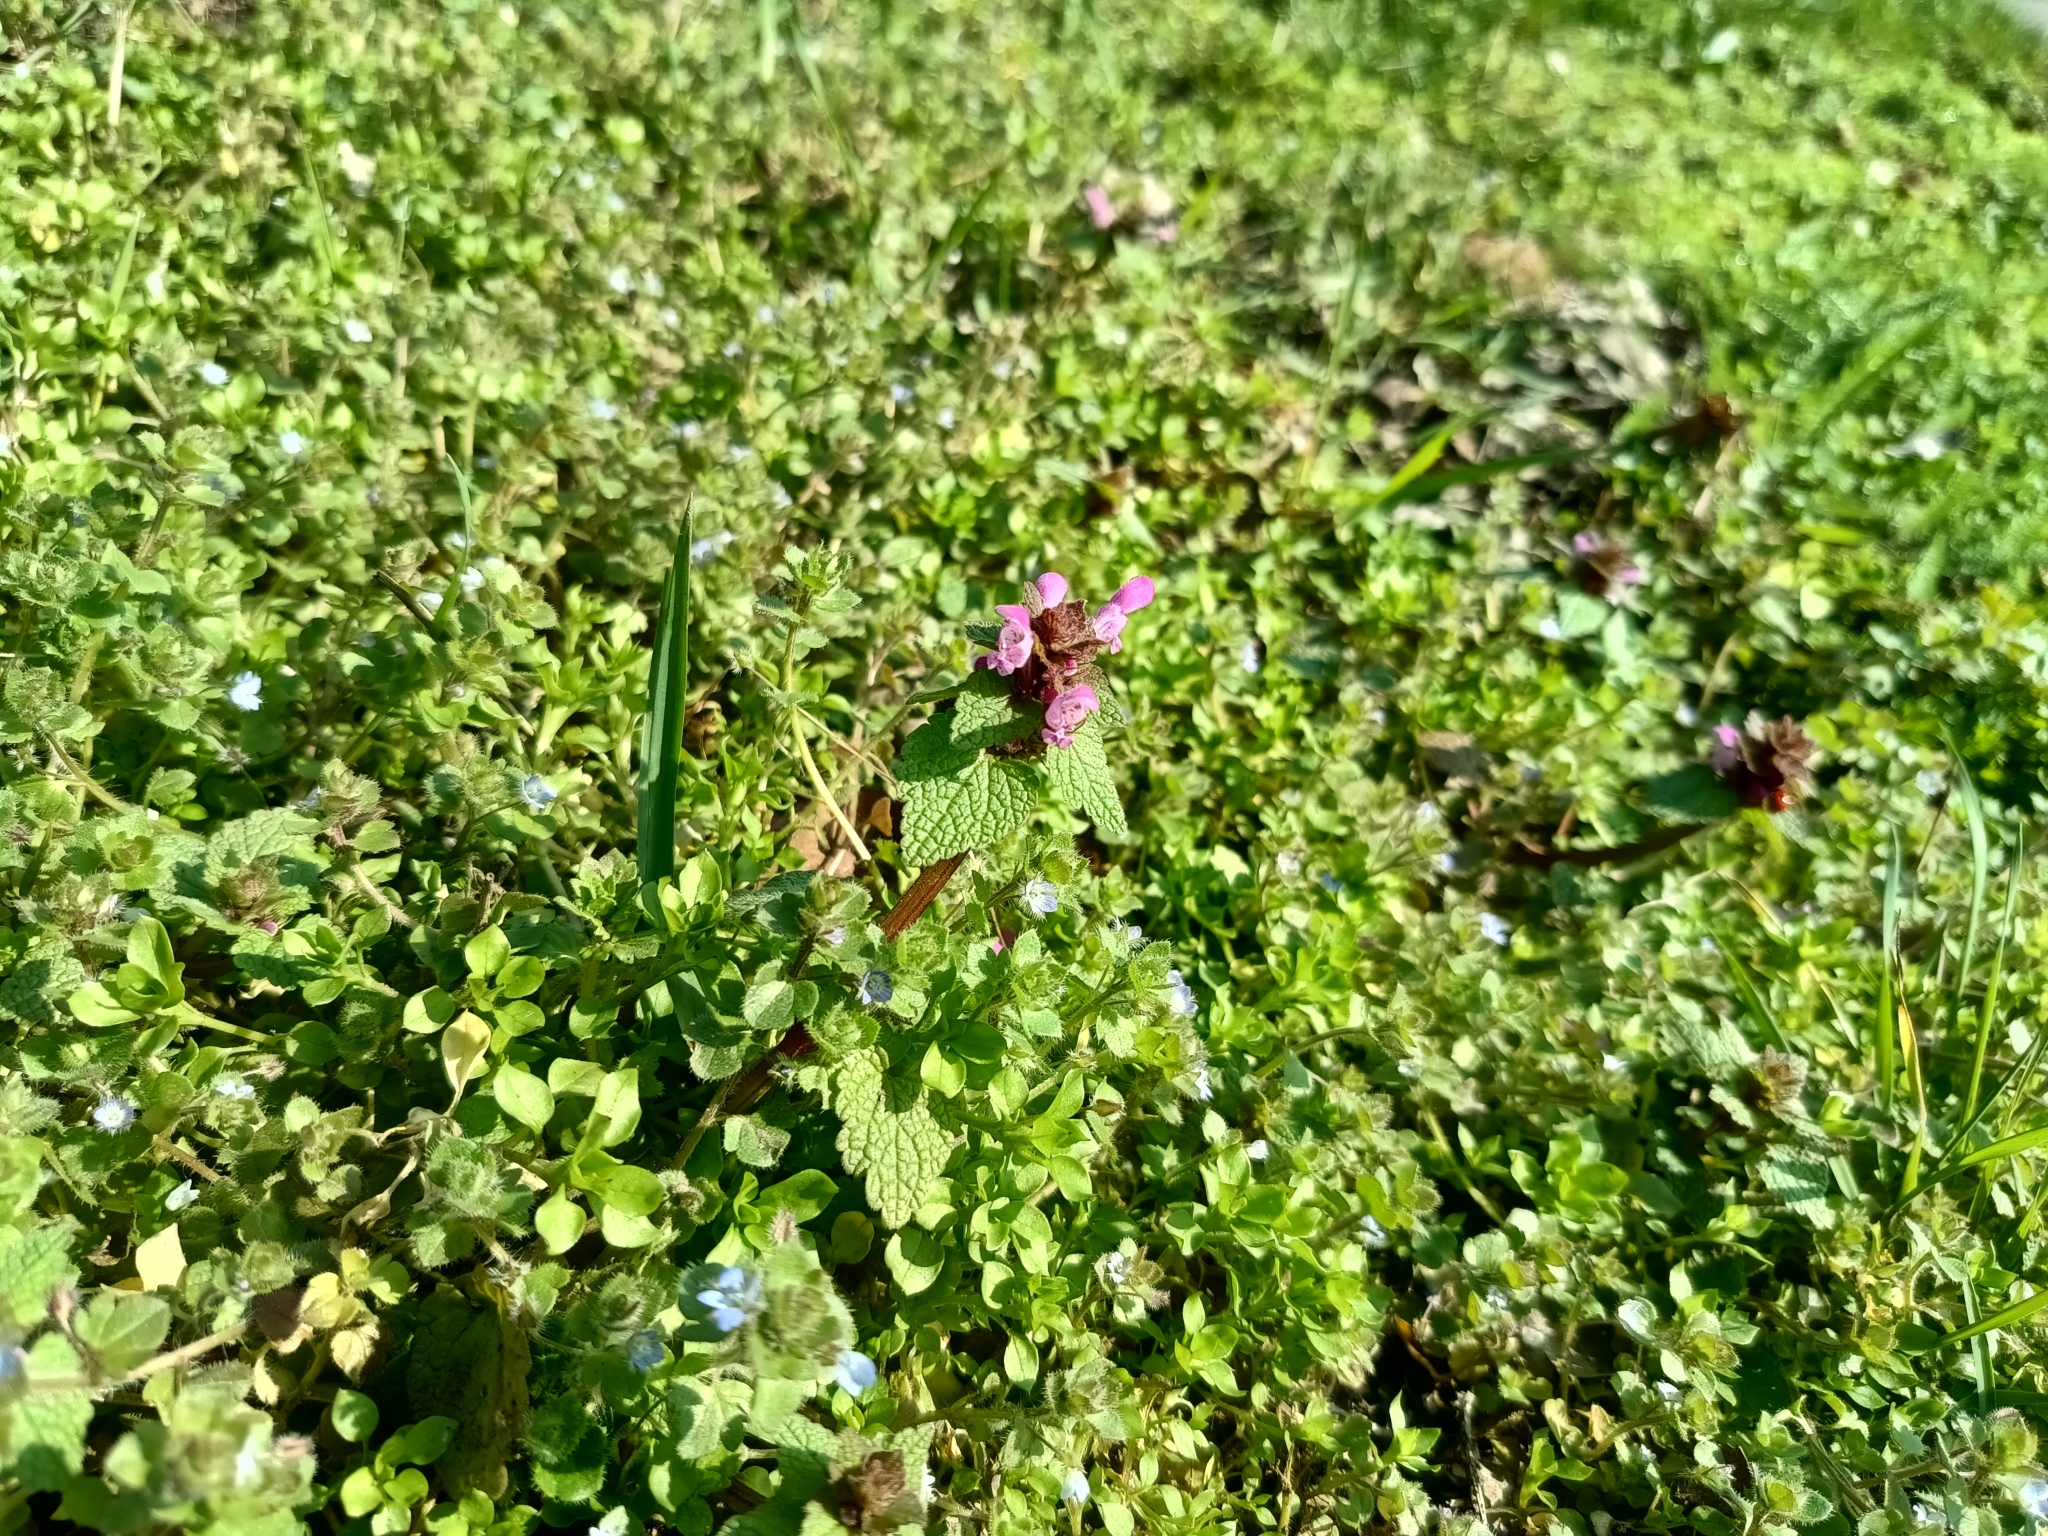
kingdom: Plantae
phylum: Tracheophyta
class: Magnoliopsida
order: Lamiales
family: Lamiaceae
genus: Lamium
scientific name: Lamium purpureum
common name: Red dead-nettle
